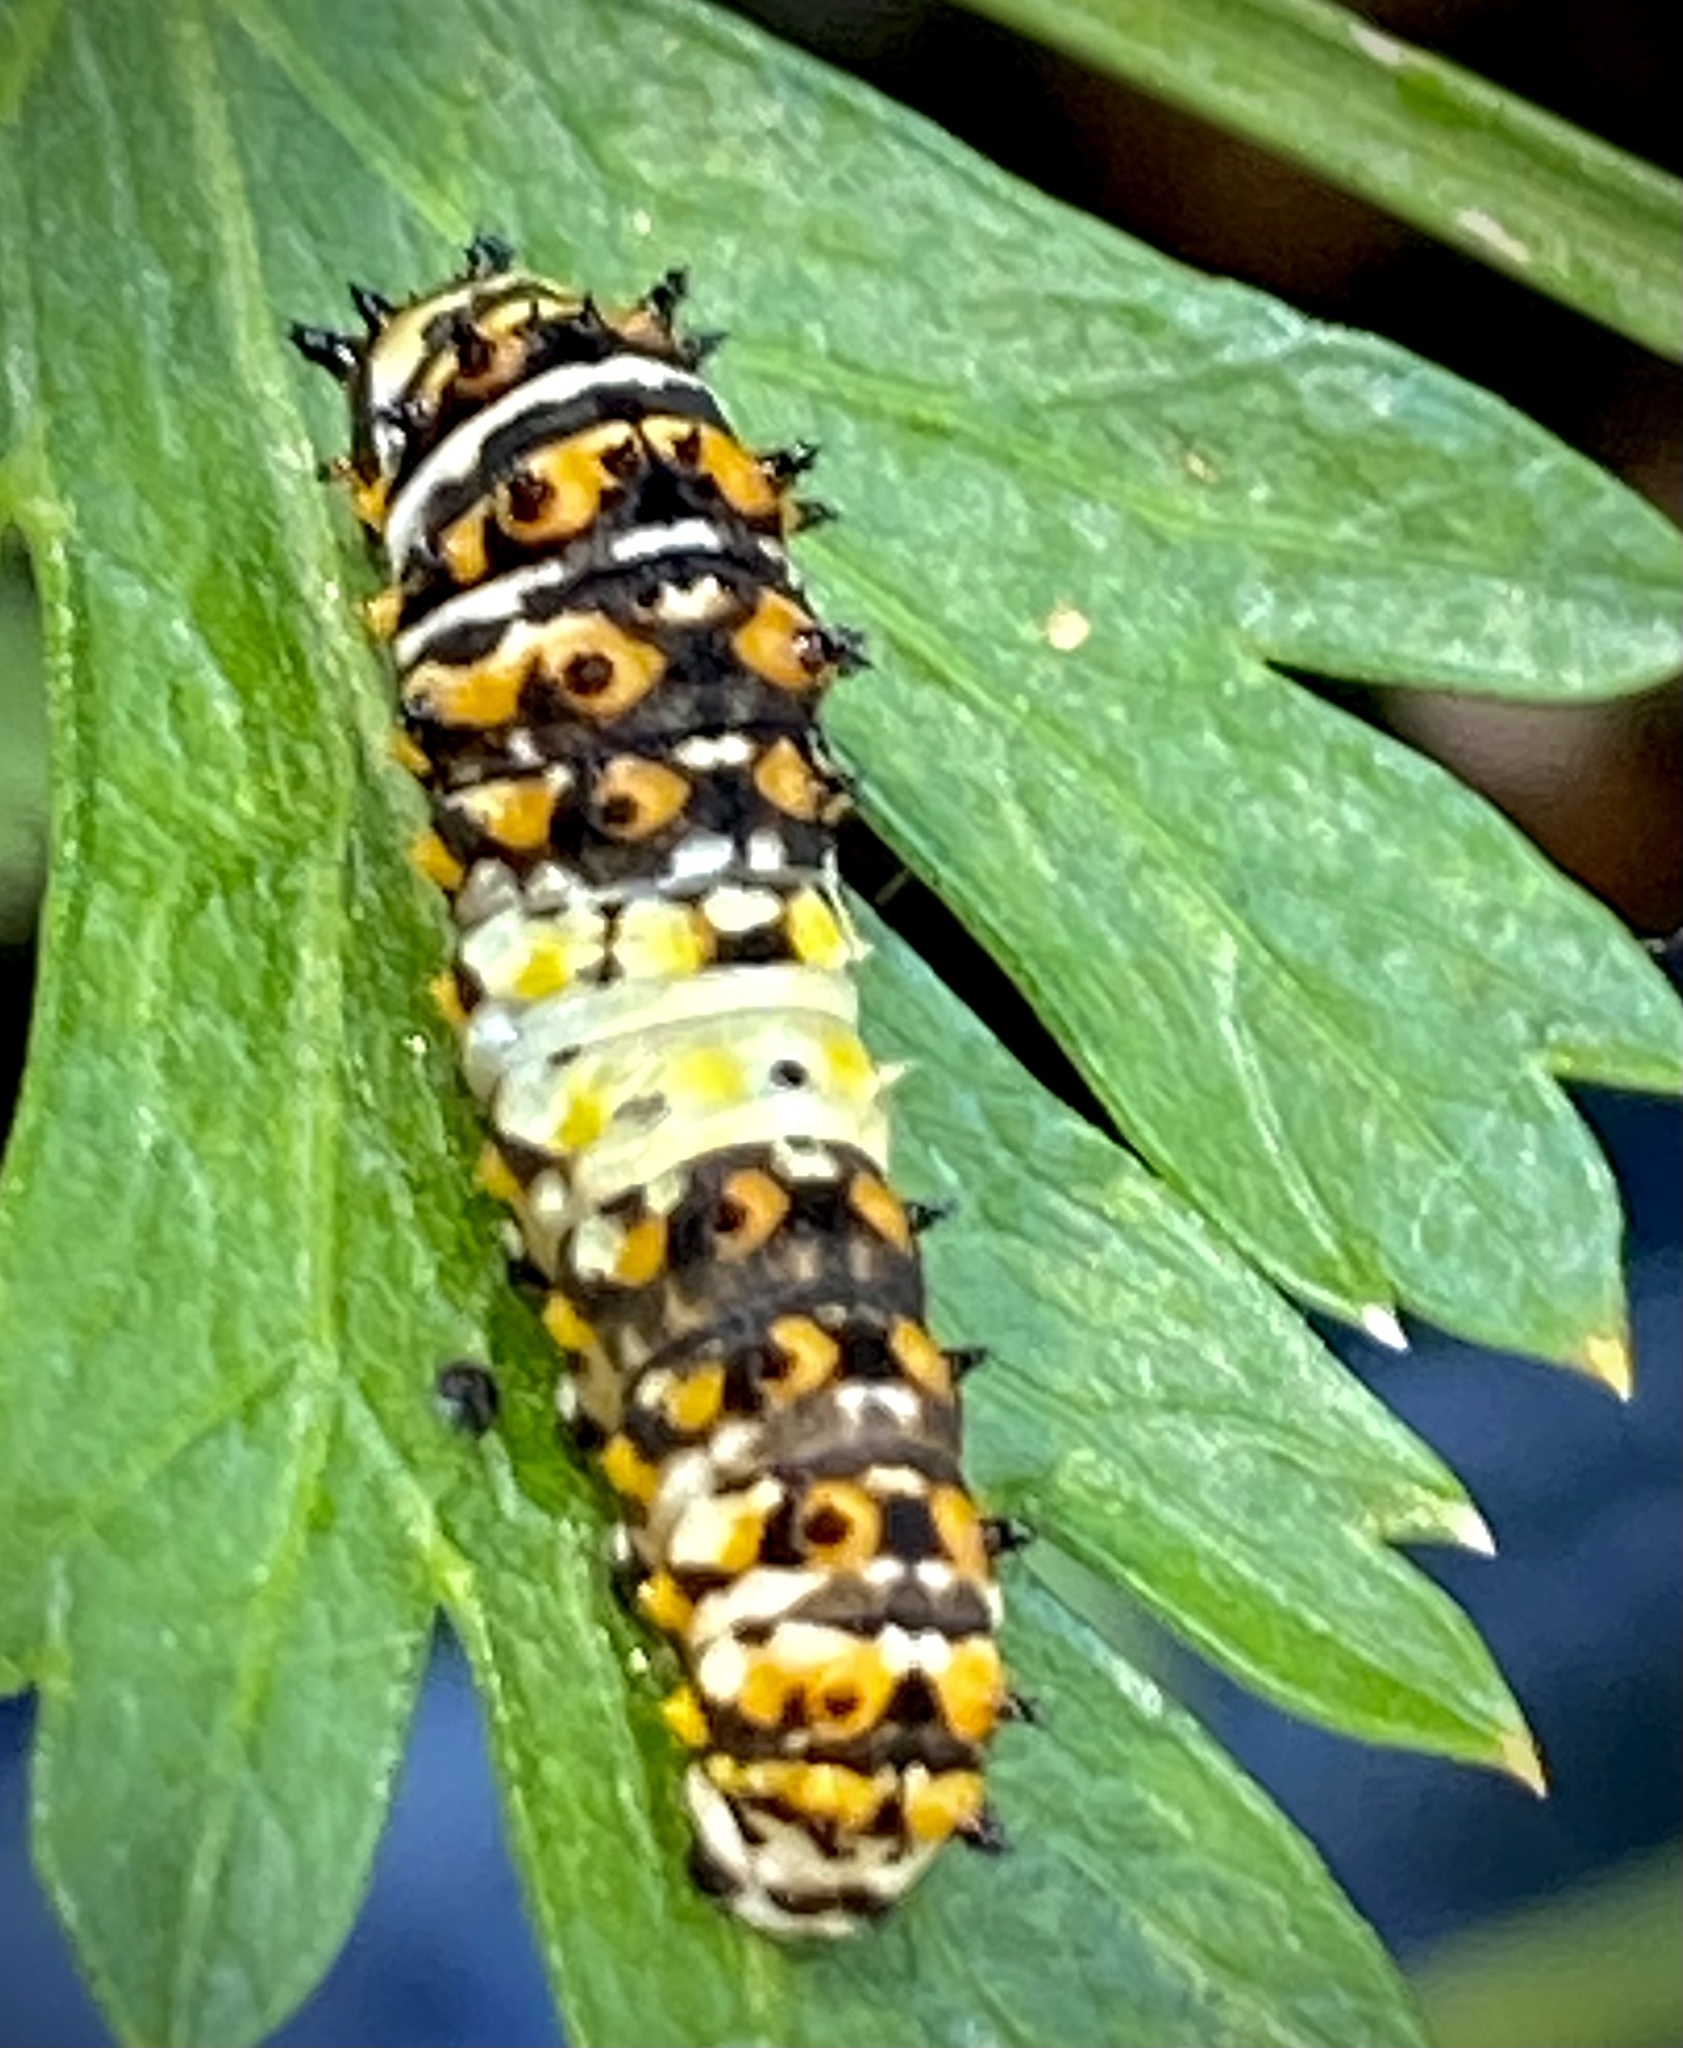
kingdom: Animalia
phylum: Arthropoda
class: Insecta
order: Lepidoptera
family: Papilionidae
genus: Papilio
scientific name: Papilio polyxenes
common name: Black swallowtail
